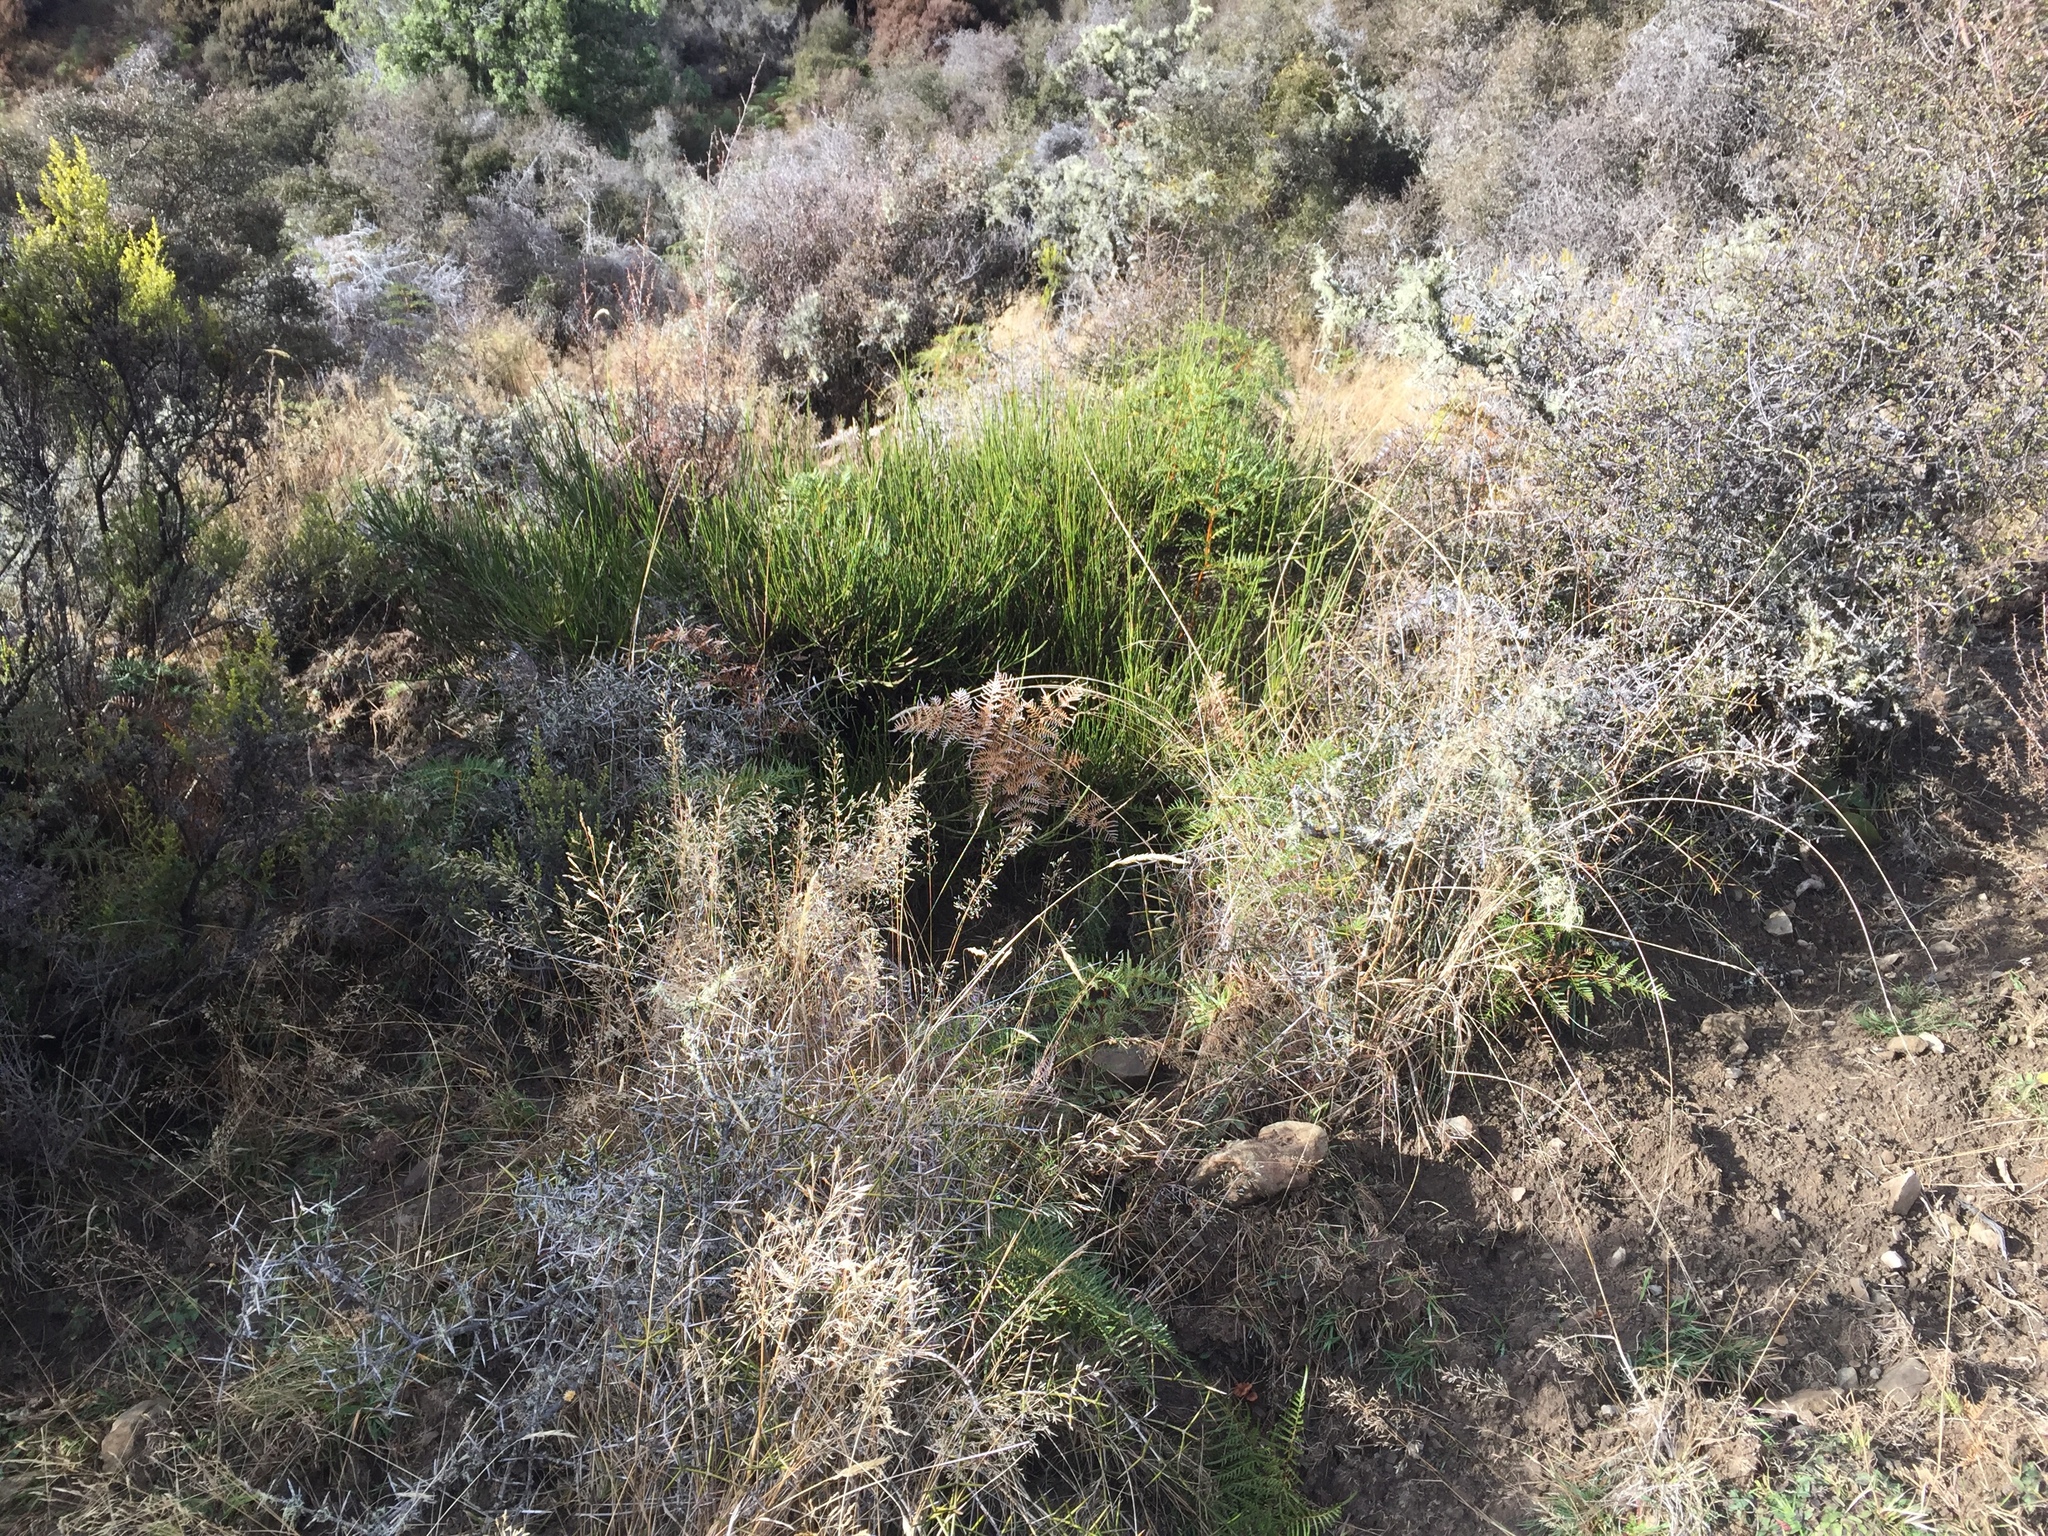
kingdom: Plantae
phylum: Tracheophyta
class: Magnoliopsida
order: Fabales
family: Fabaceae
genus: Cytisus
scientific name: Cytisus scoparius
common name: Scotch broom
